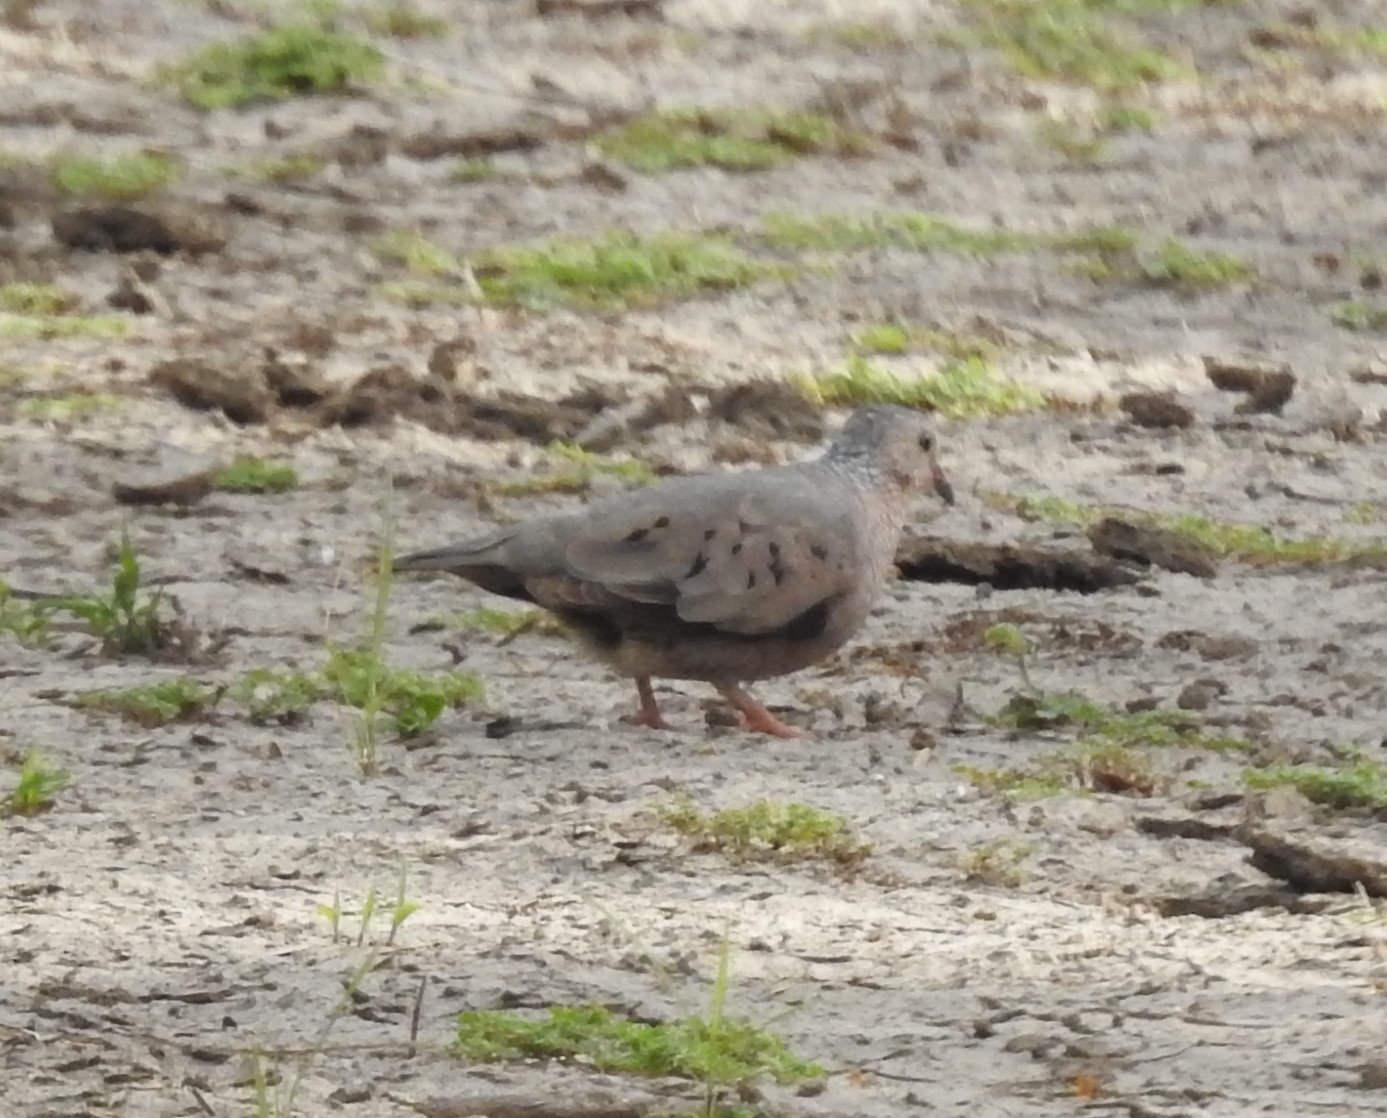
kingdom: Animalia
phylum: Chordata
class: Aves
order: Columbiformes
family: Columbidae
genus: Columbina
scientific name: Columbina passerina
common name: Common ground-dove
